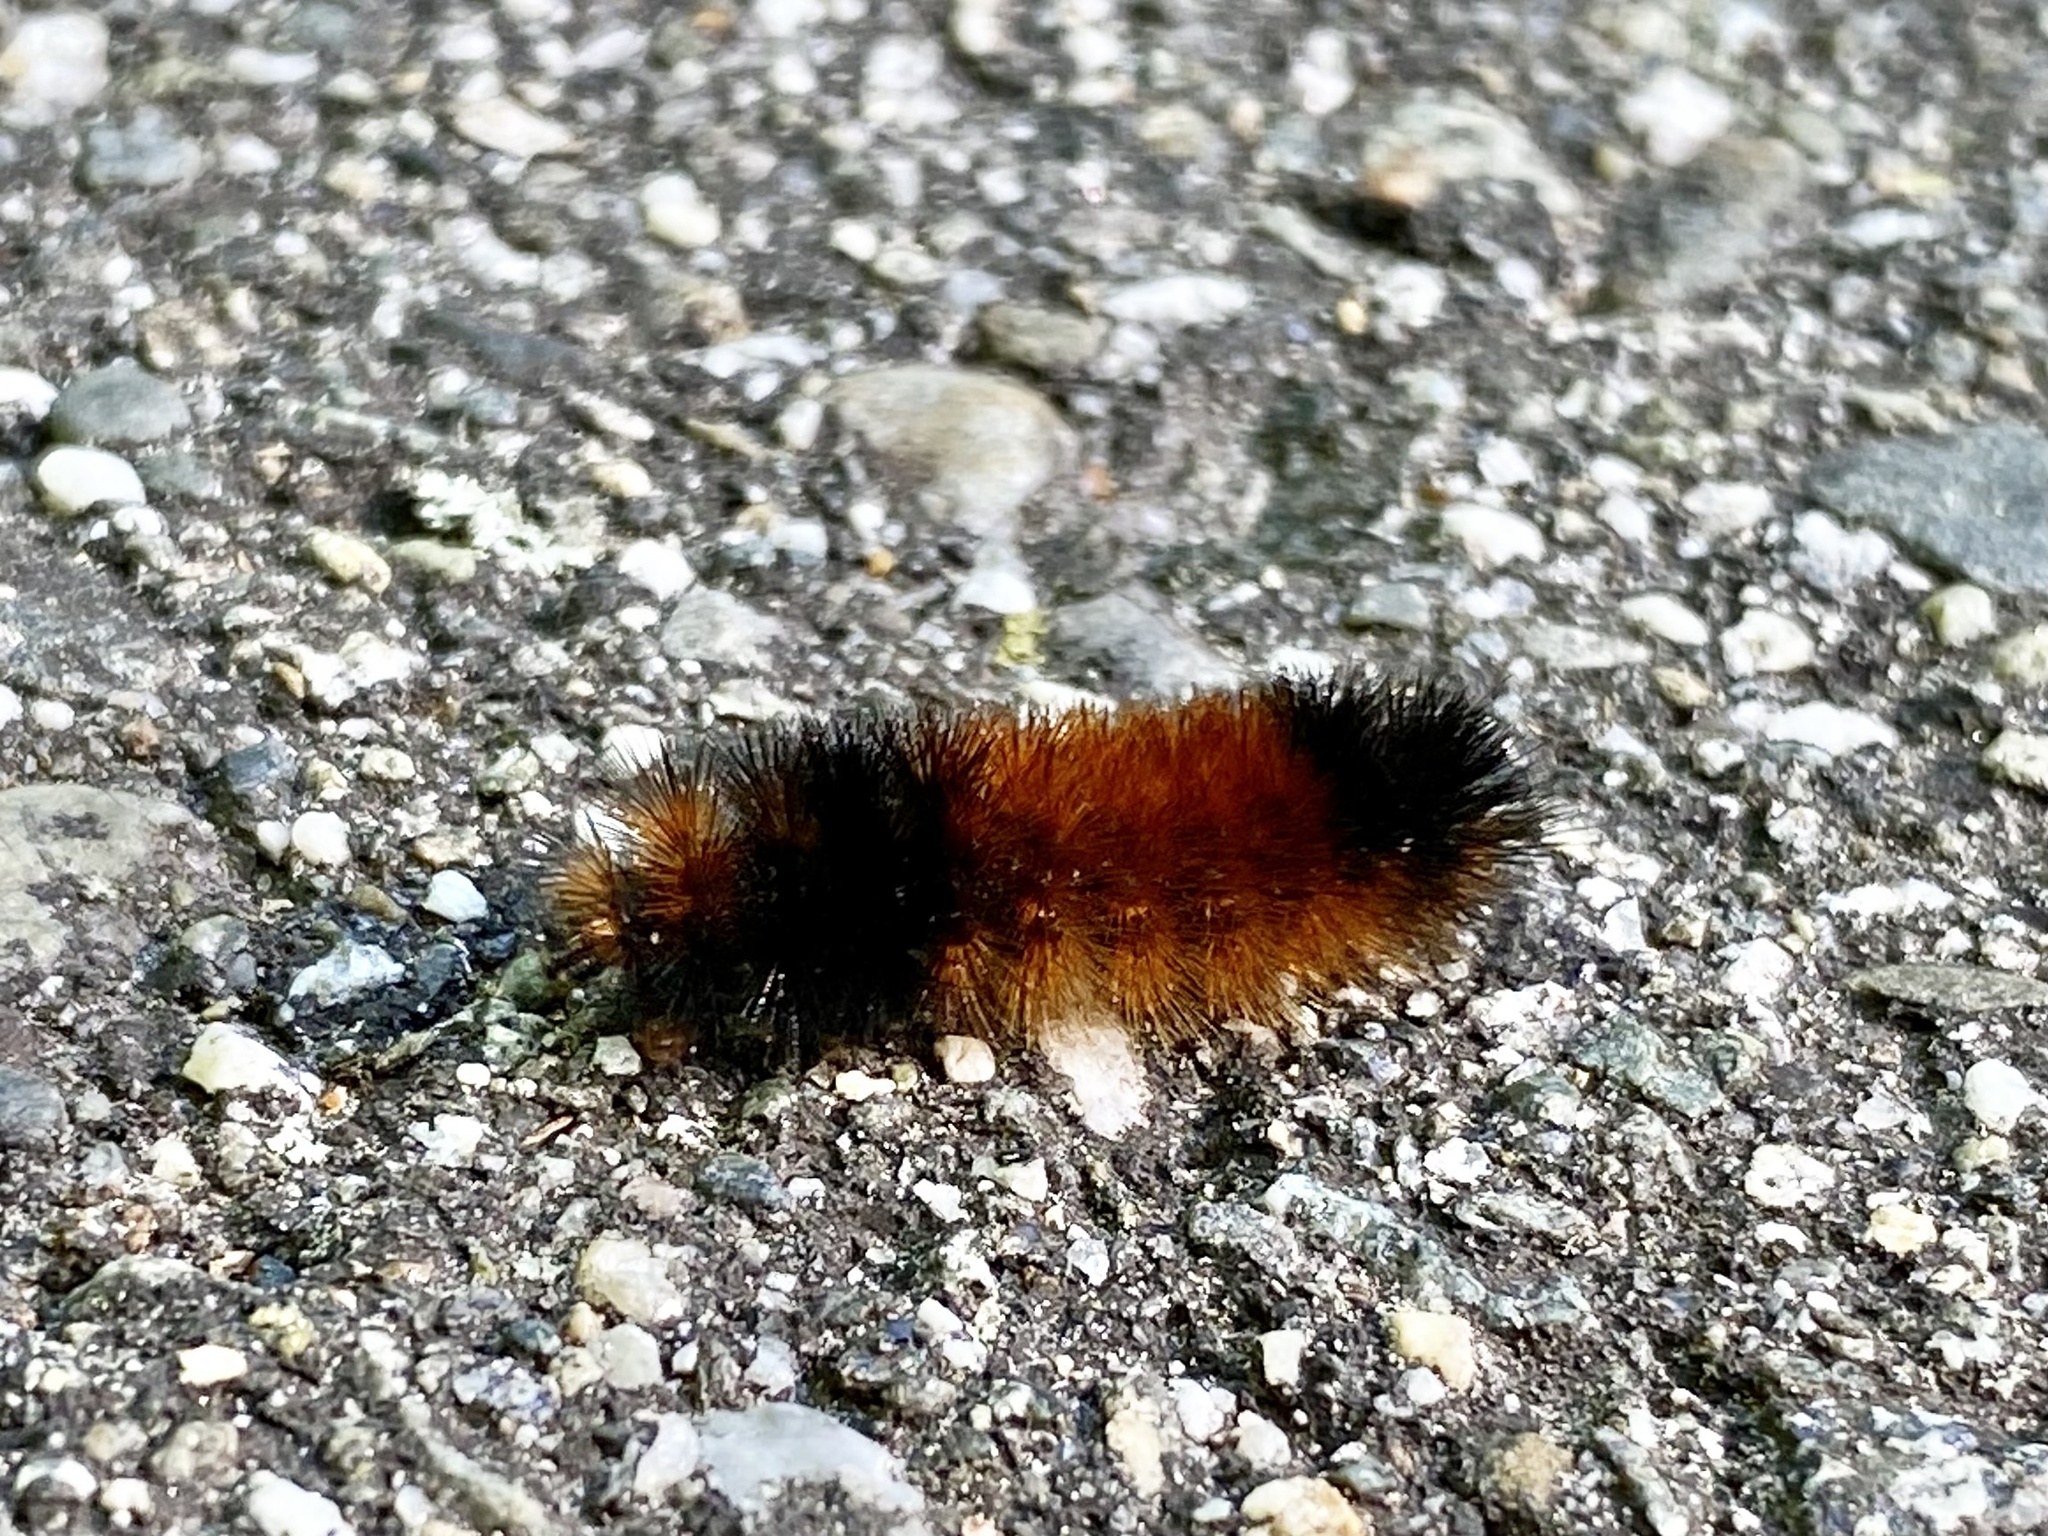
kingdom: Animalia
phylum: Arthropoda
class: Insecta
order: Lepidoptera
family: Erebidae
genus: Pyrrharctia
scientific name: Pyrrharctia isabella
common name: Isabella tiger moth
